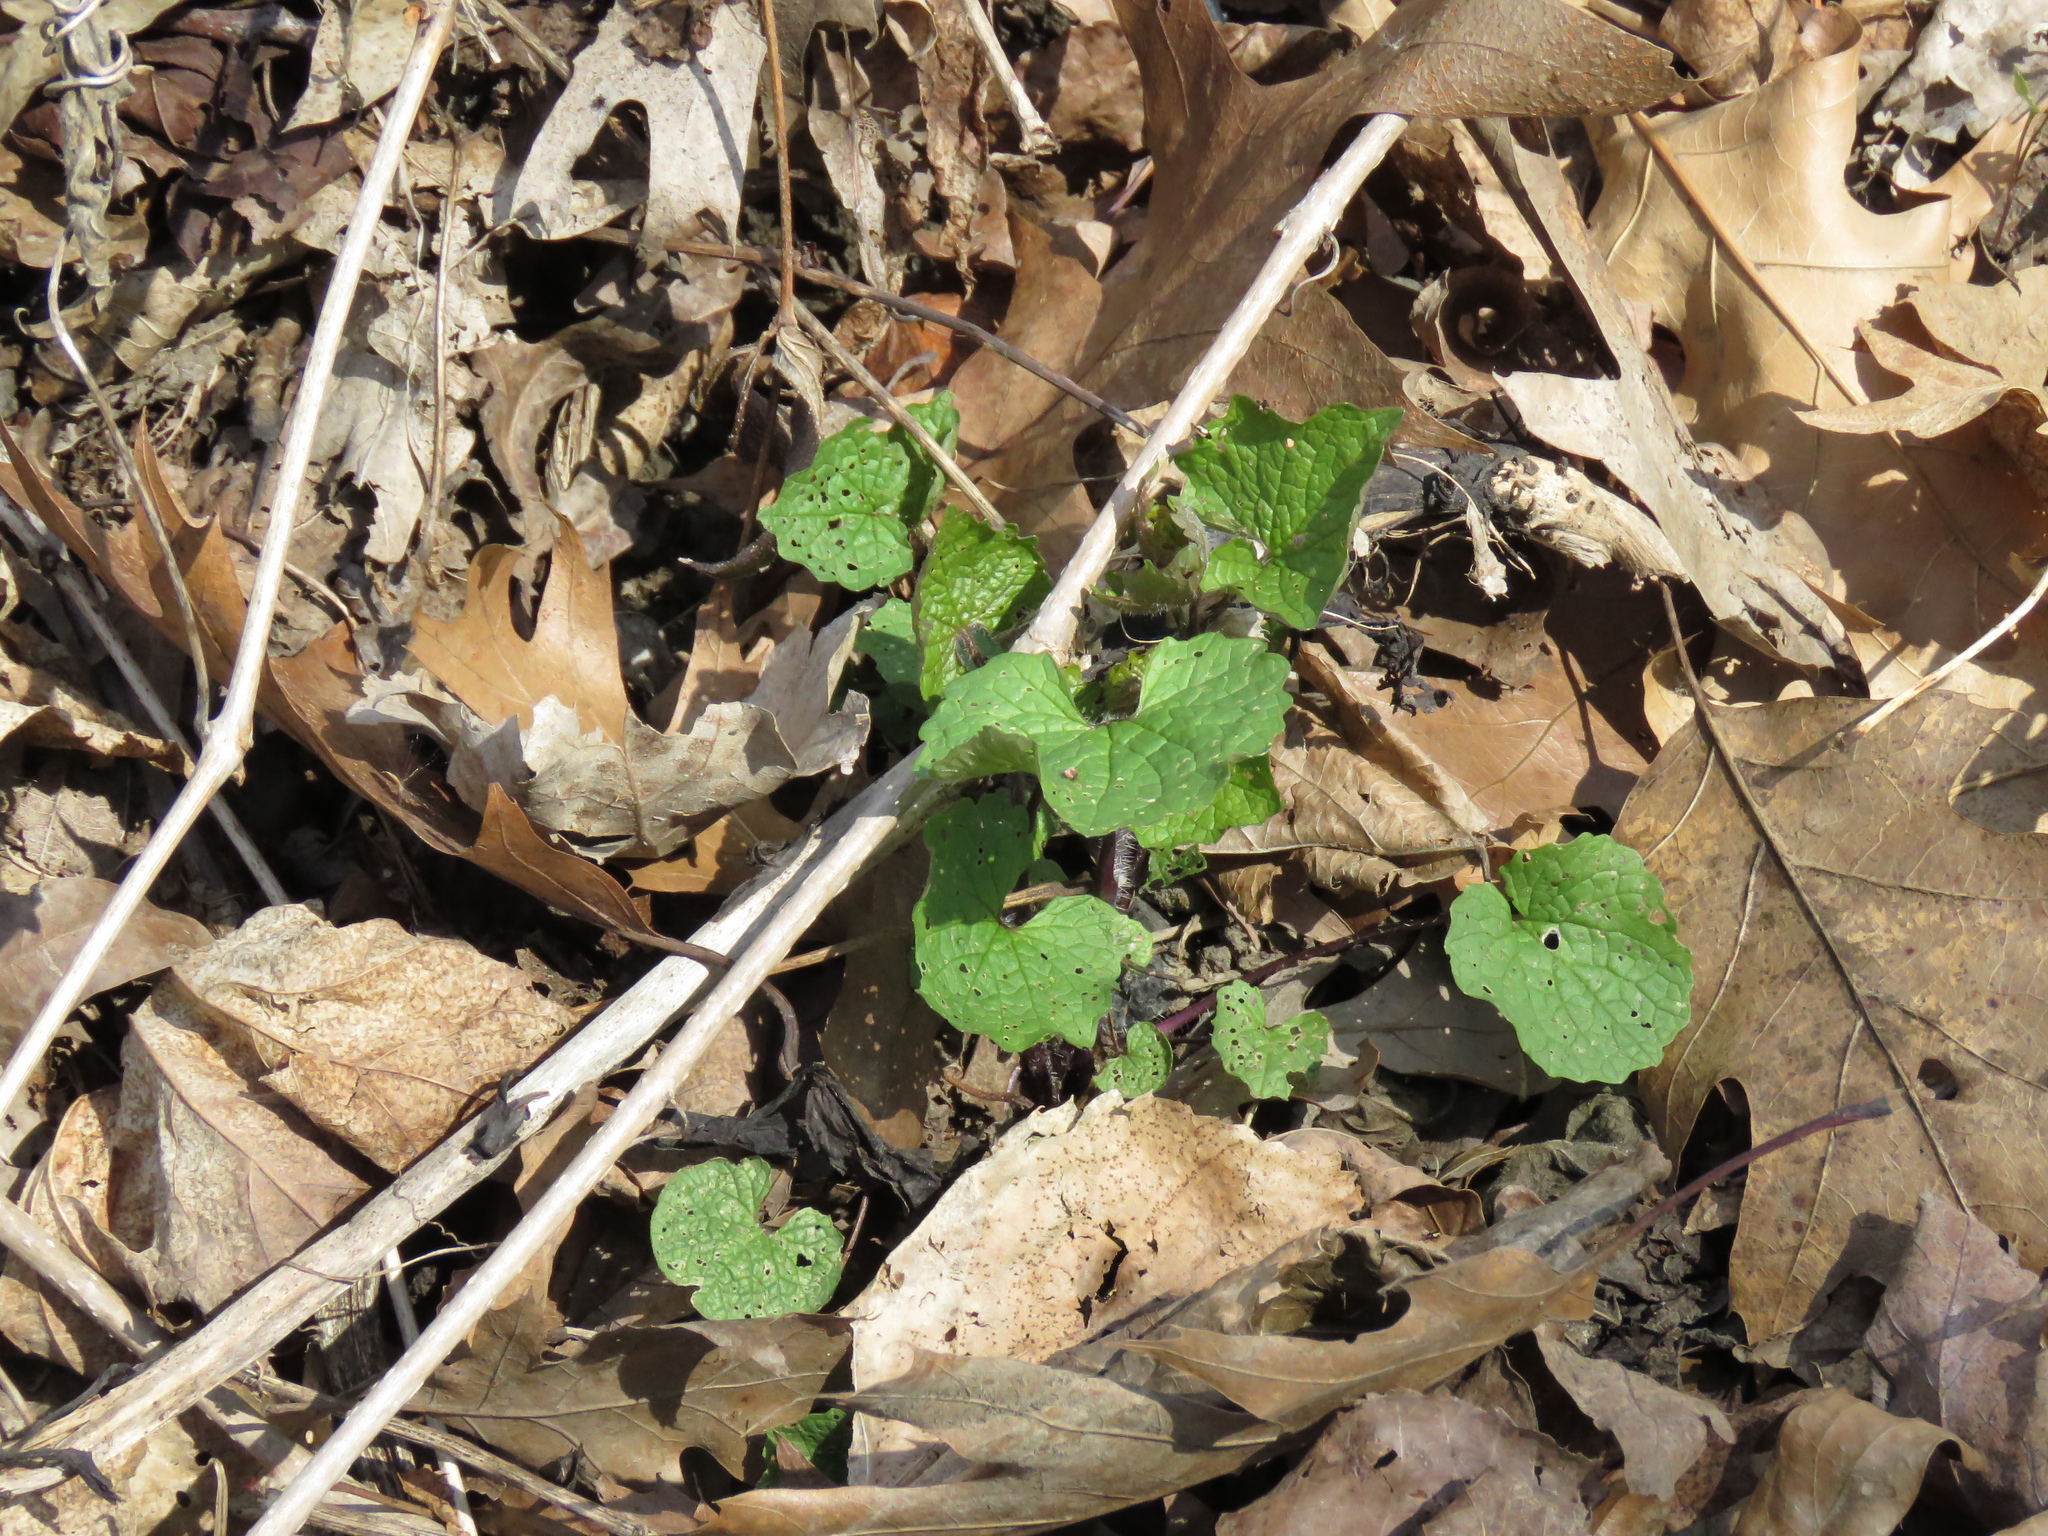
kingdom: Plantae
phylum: Tracheophyta
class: Magnoliopsida
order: Brassicales
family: Brassicaceae
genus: Alliaria
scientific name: Alliaria petiolata
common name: Garlic mustard
